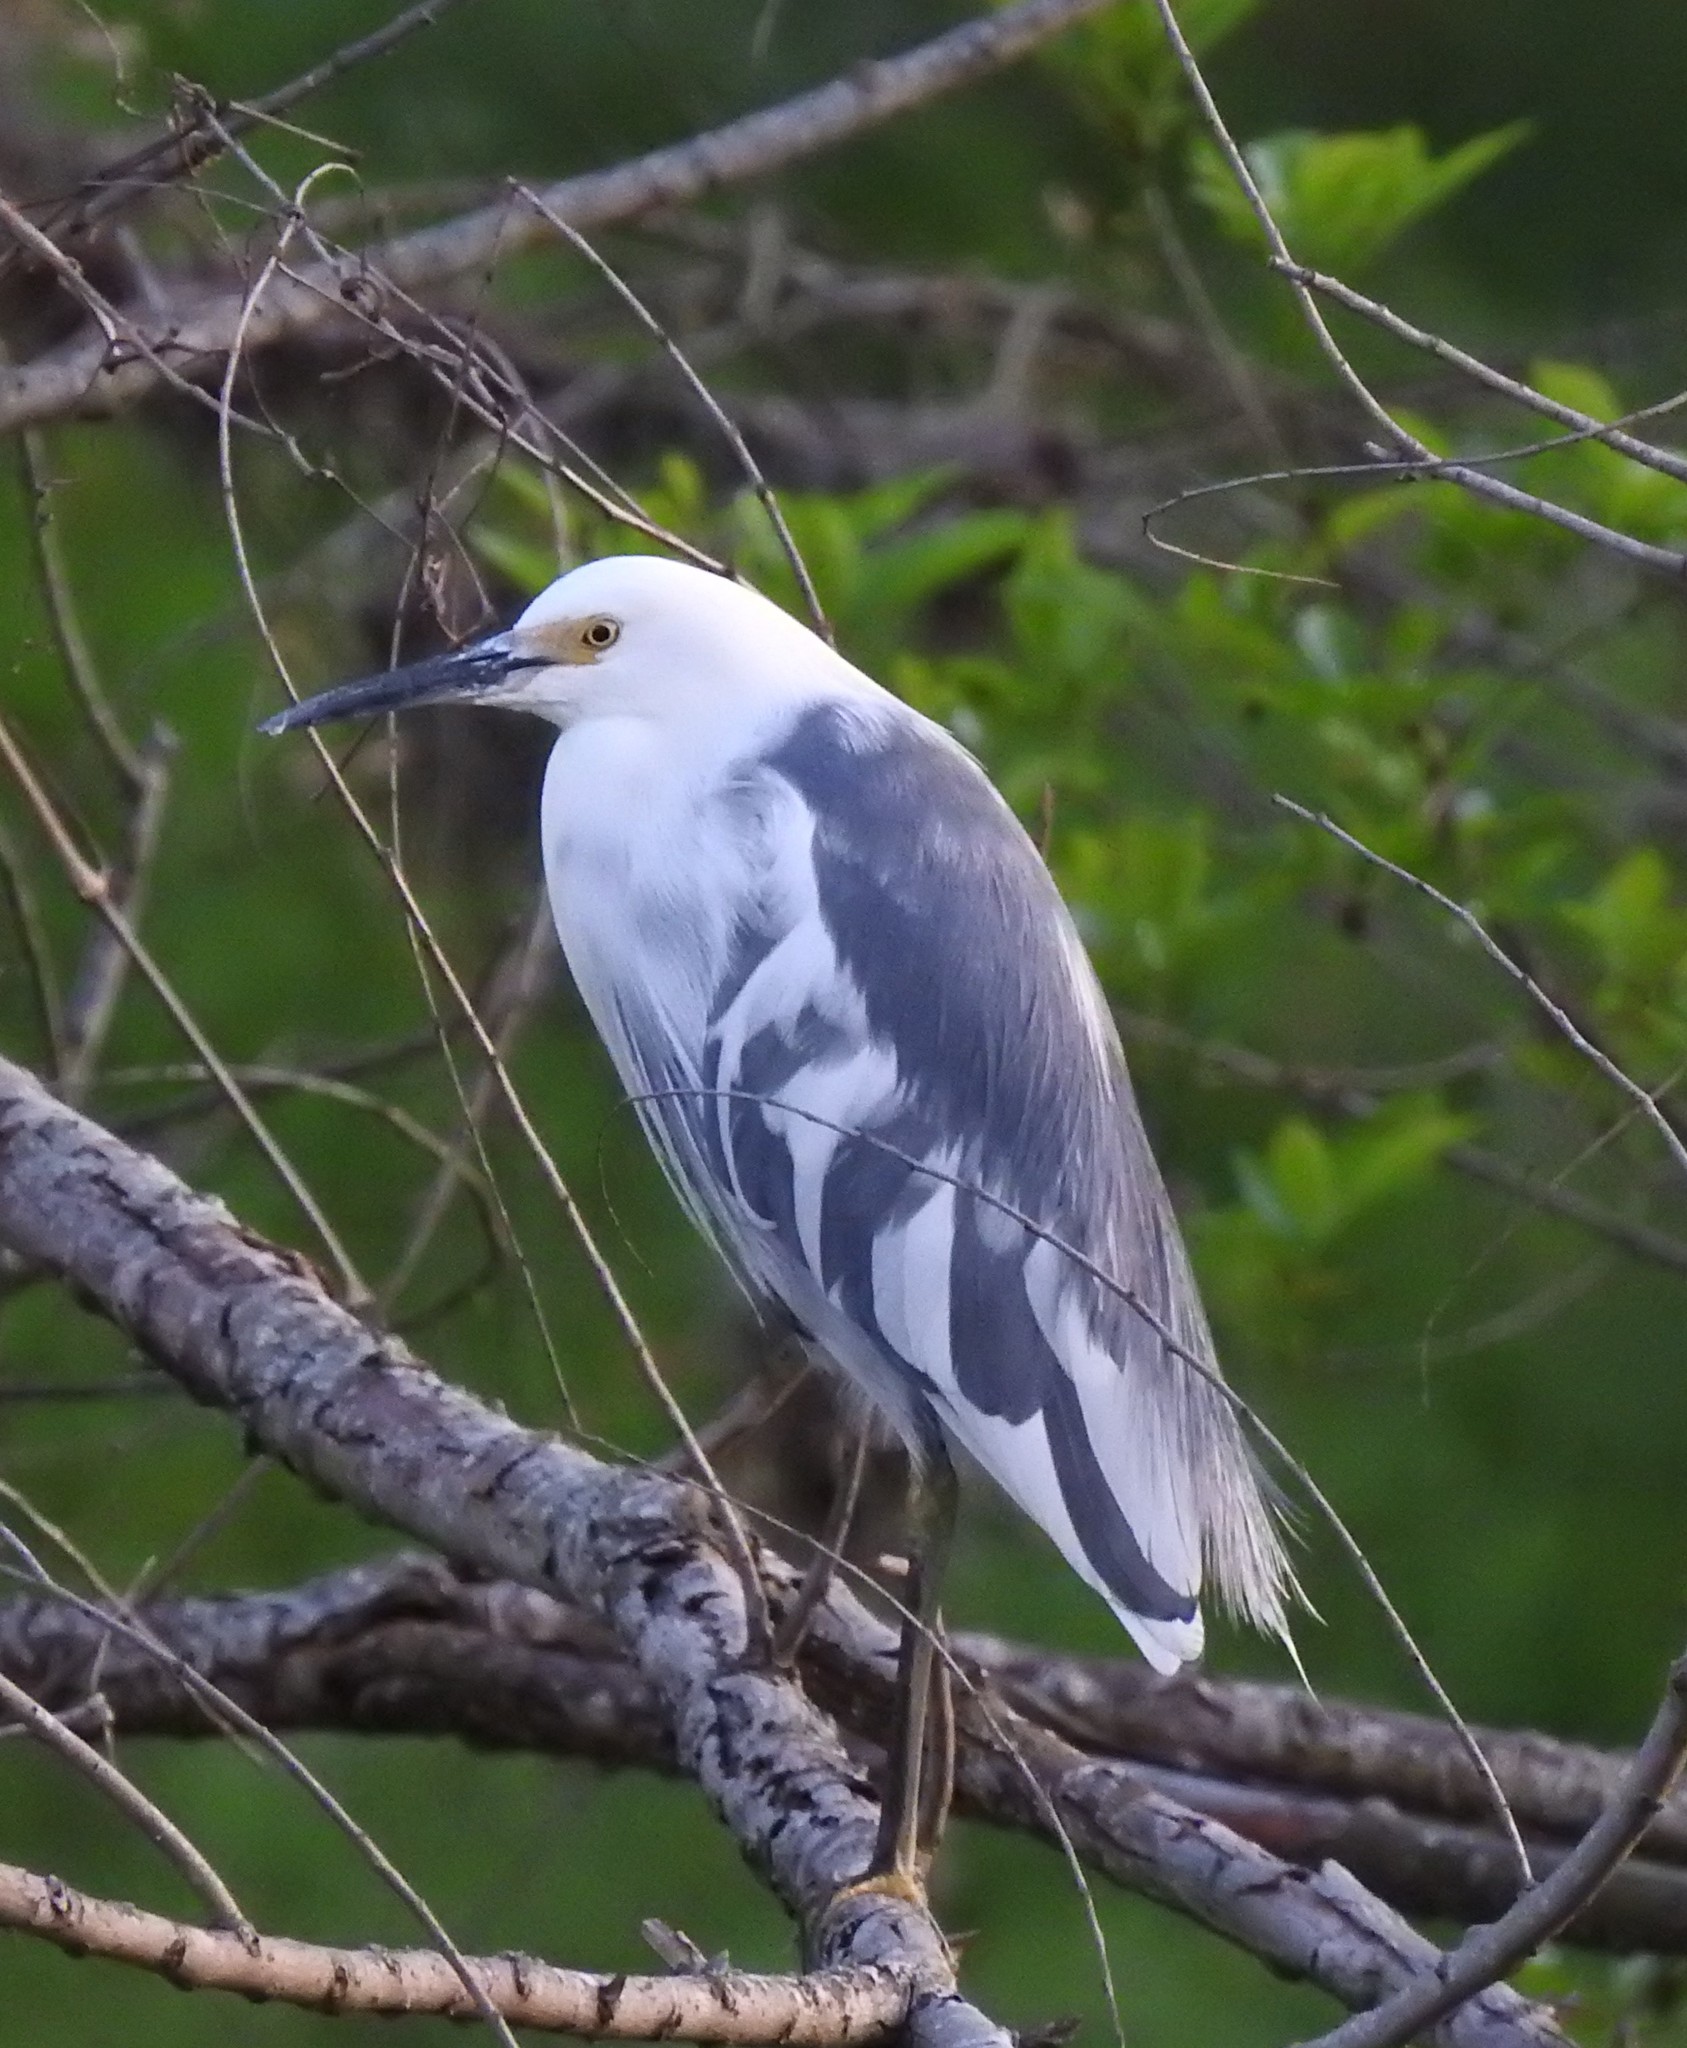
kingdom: Animalia
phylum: Chordata
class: Aves
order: Pelecaniformes
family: Ardeidae
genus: Egretta
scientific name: Egretta
